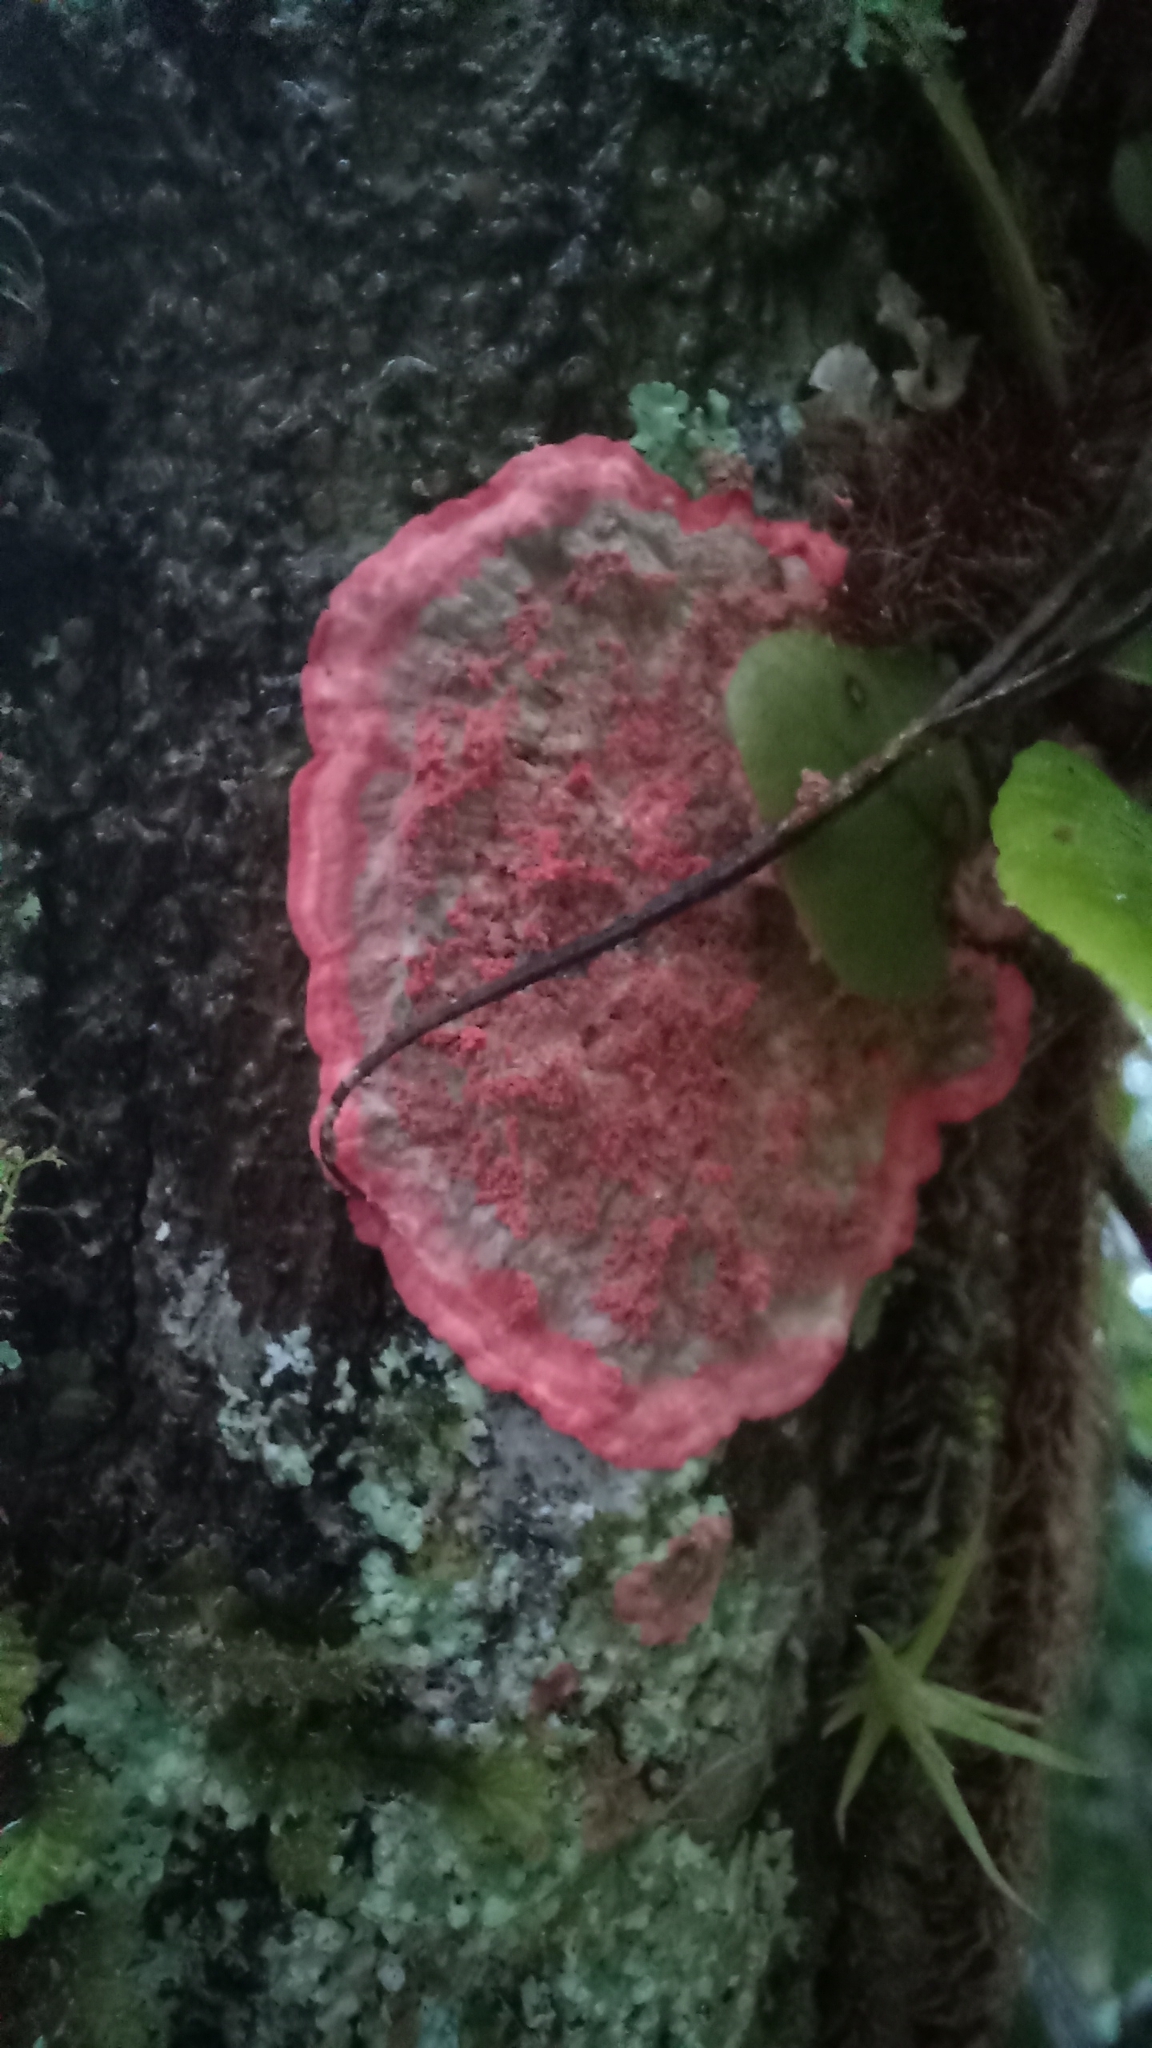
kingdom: Fungi
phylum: Ascomycota
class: Arthoniomycetes
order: Arthoniales
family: Arthoniaceae
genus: Herpothallon
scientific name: Herpothallon rubrocinctum
